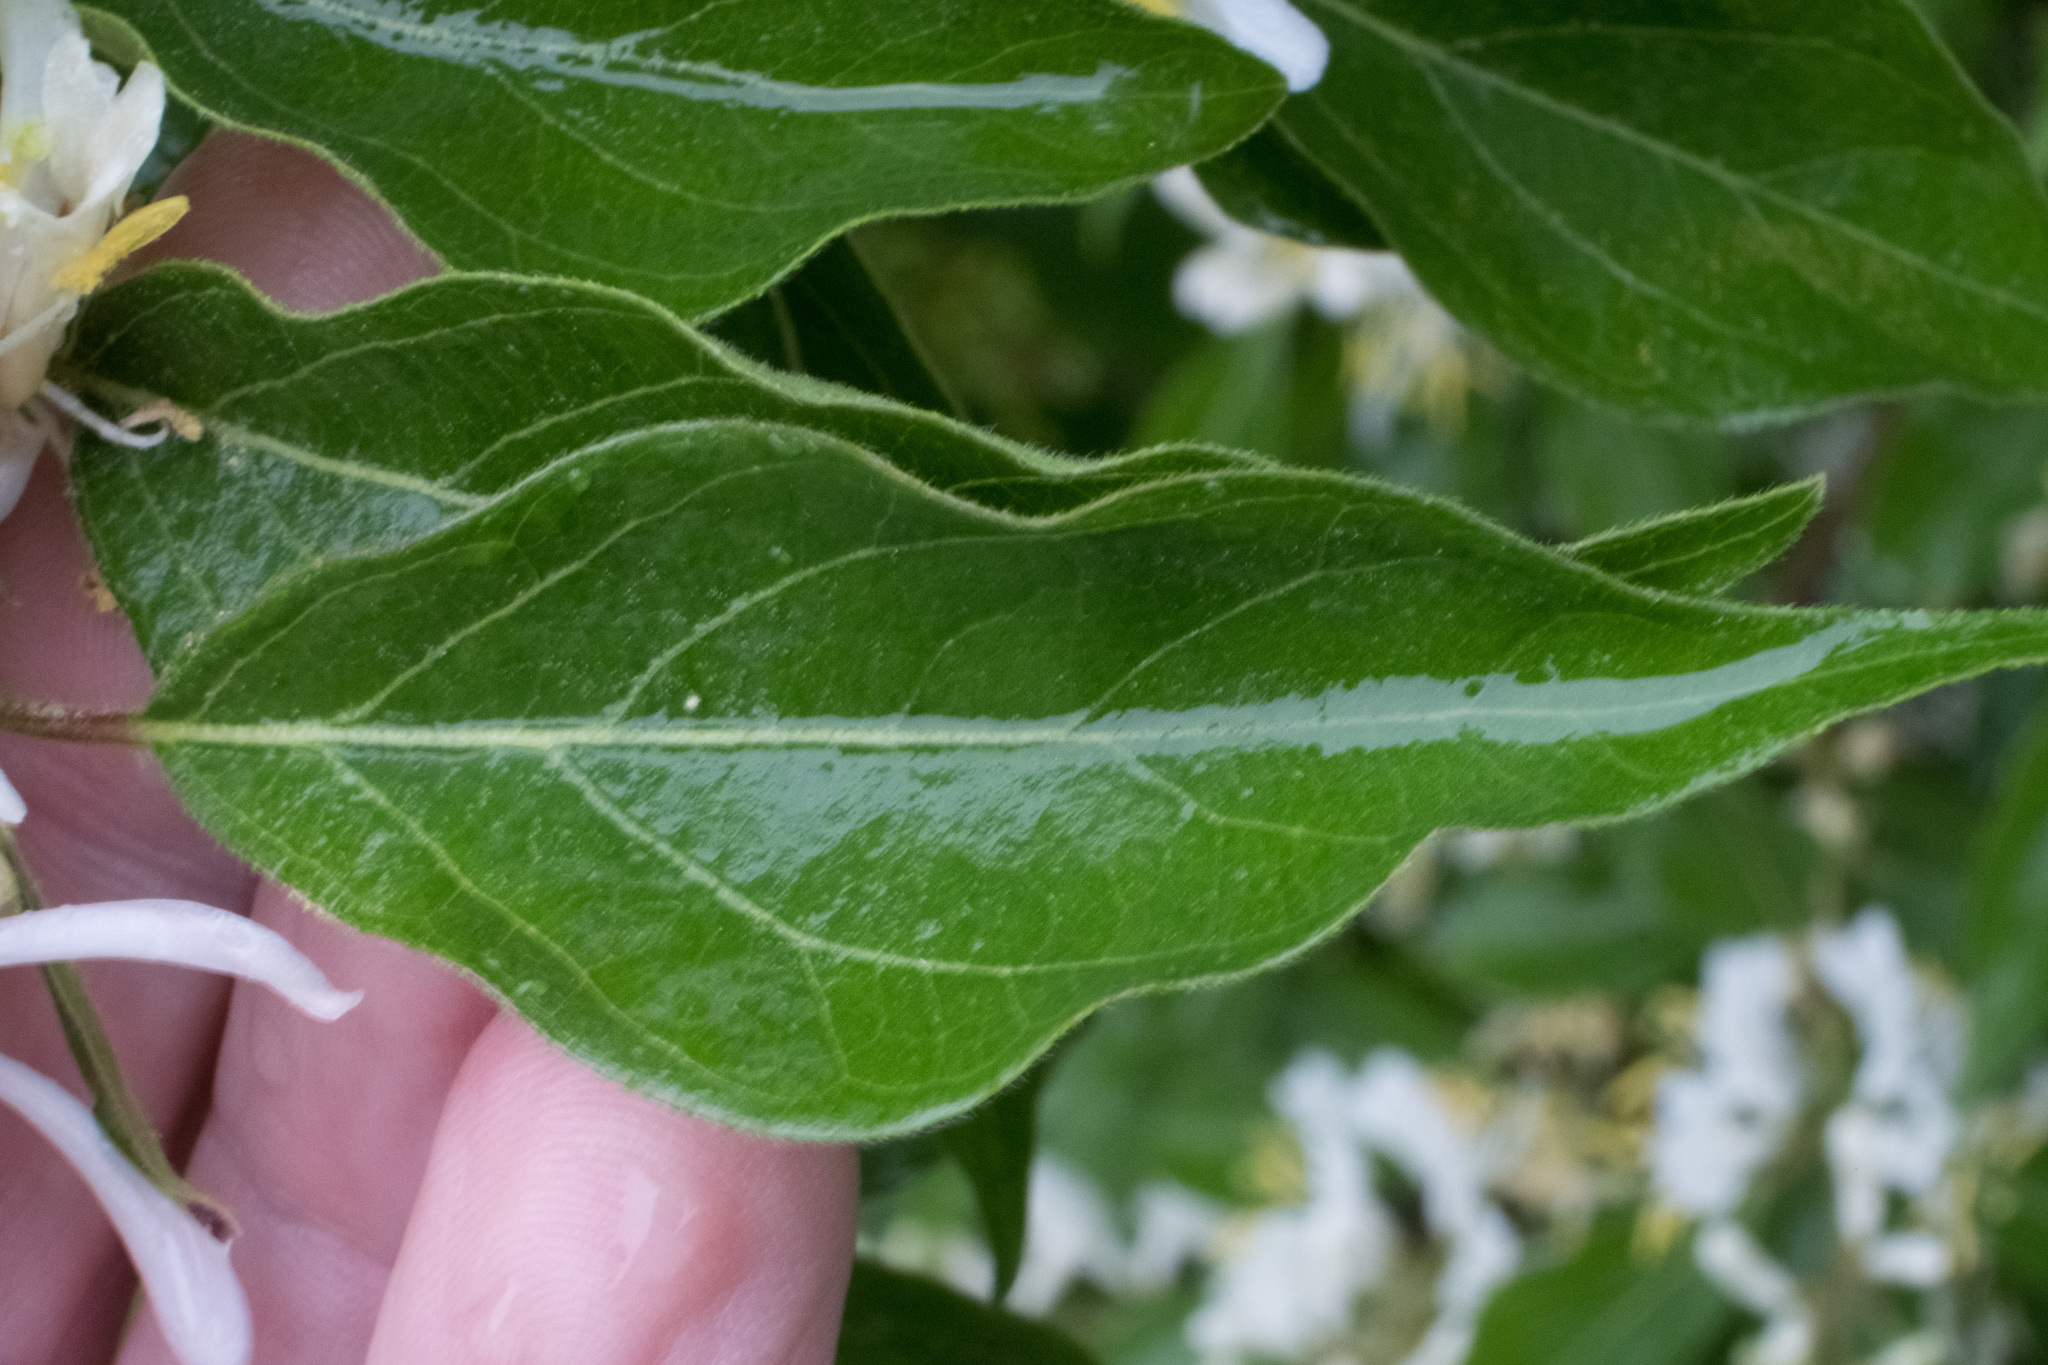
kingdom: Plantae
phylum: Tracheophyta
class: Magnoliopsida
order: Dipsacales
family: Caprifoliaceae
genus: Lonicera
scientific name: Lonicera maackii
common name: Amur honeysuckle
